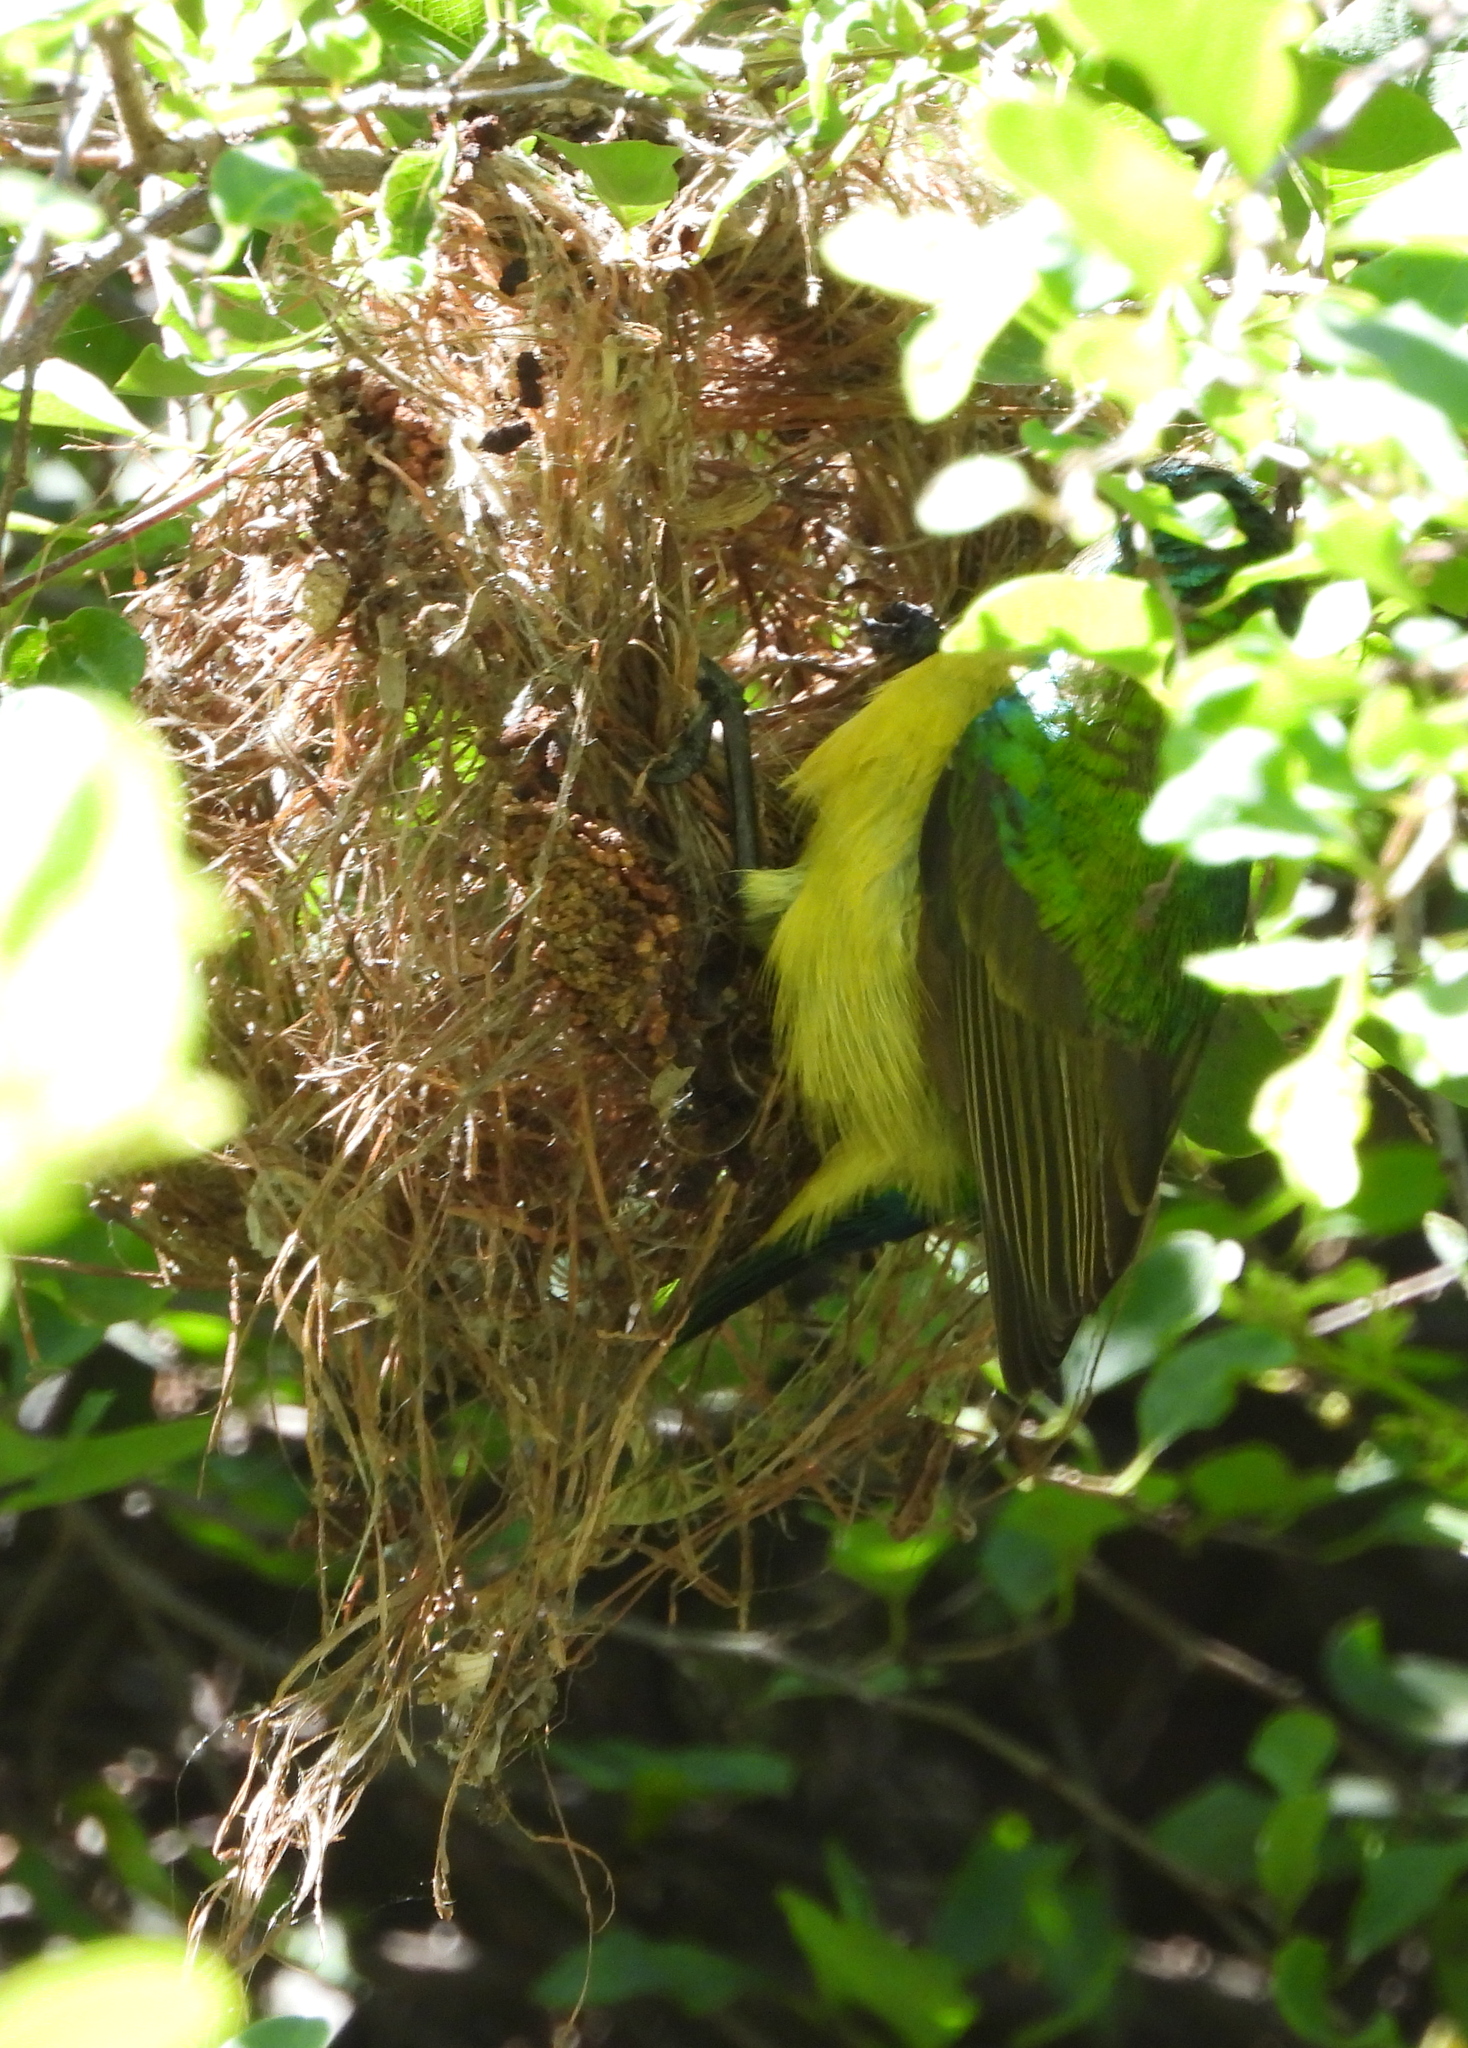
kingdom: Animalia
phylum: Chordata
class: Aves
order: Passeriformes
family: Nectariniidae
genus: Hedydipna
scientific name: Hedydipna collaris
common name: Collared sunbird
